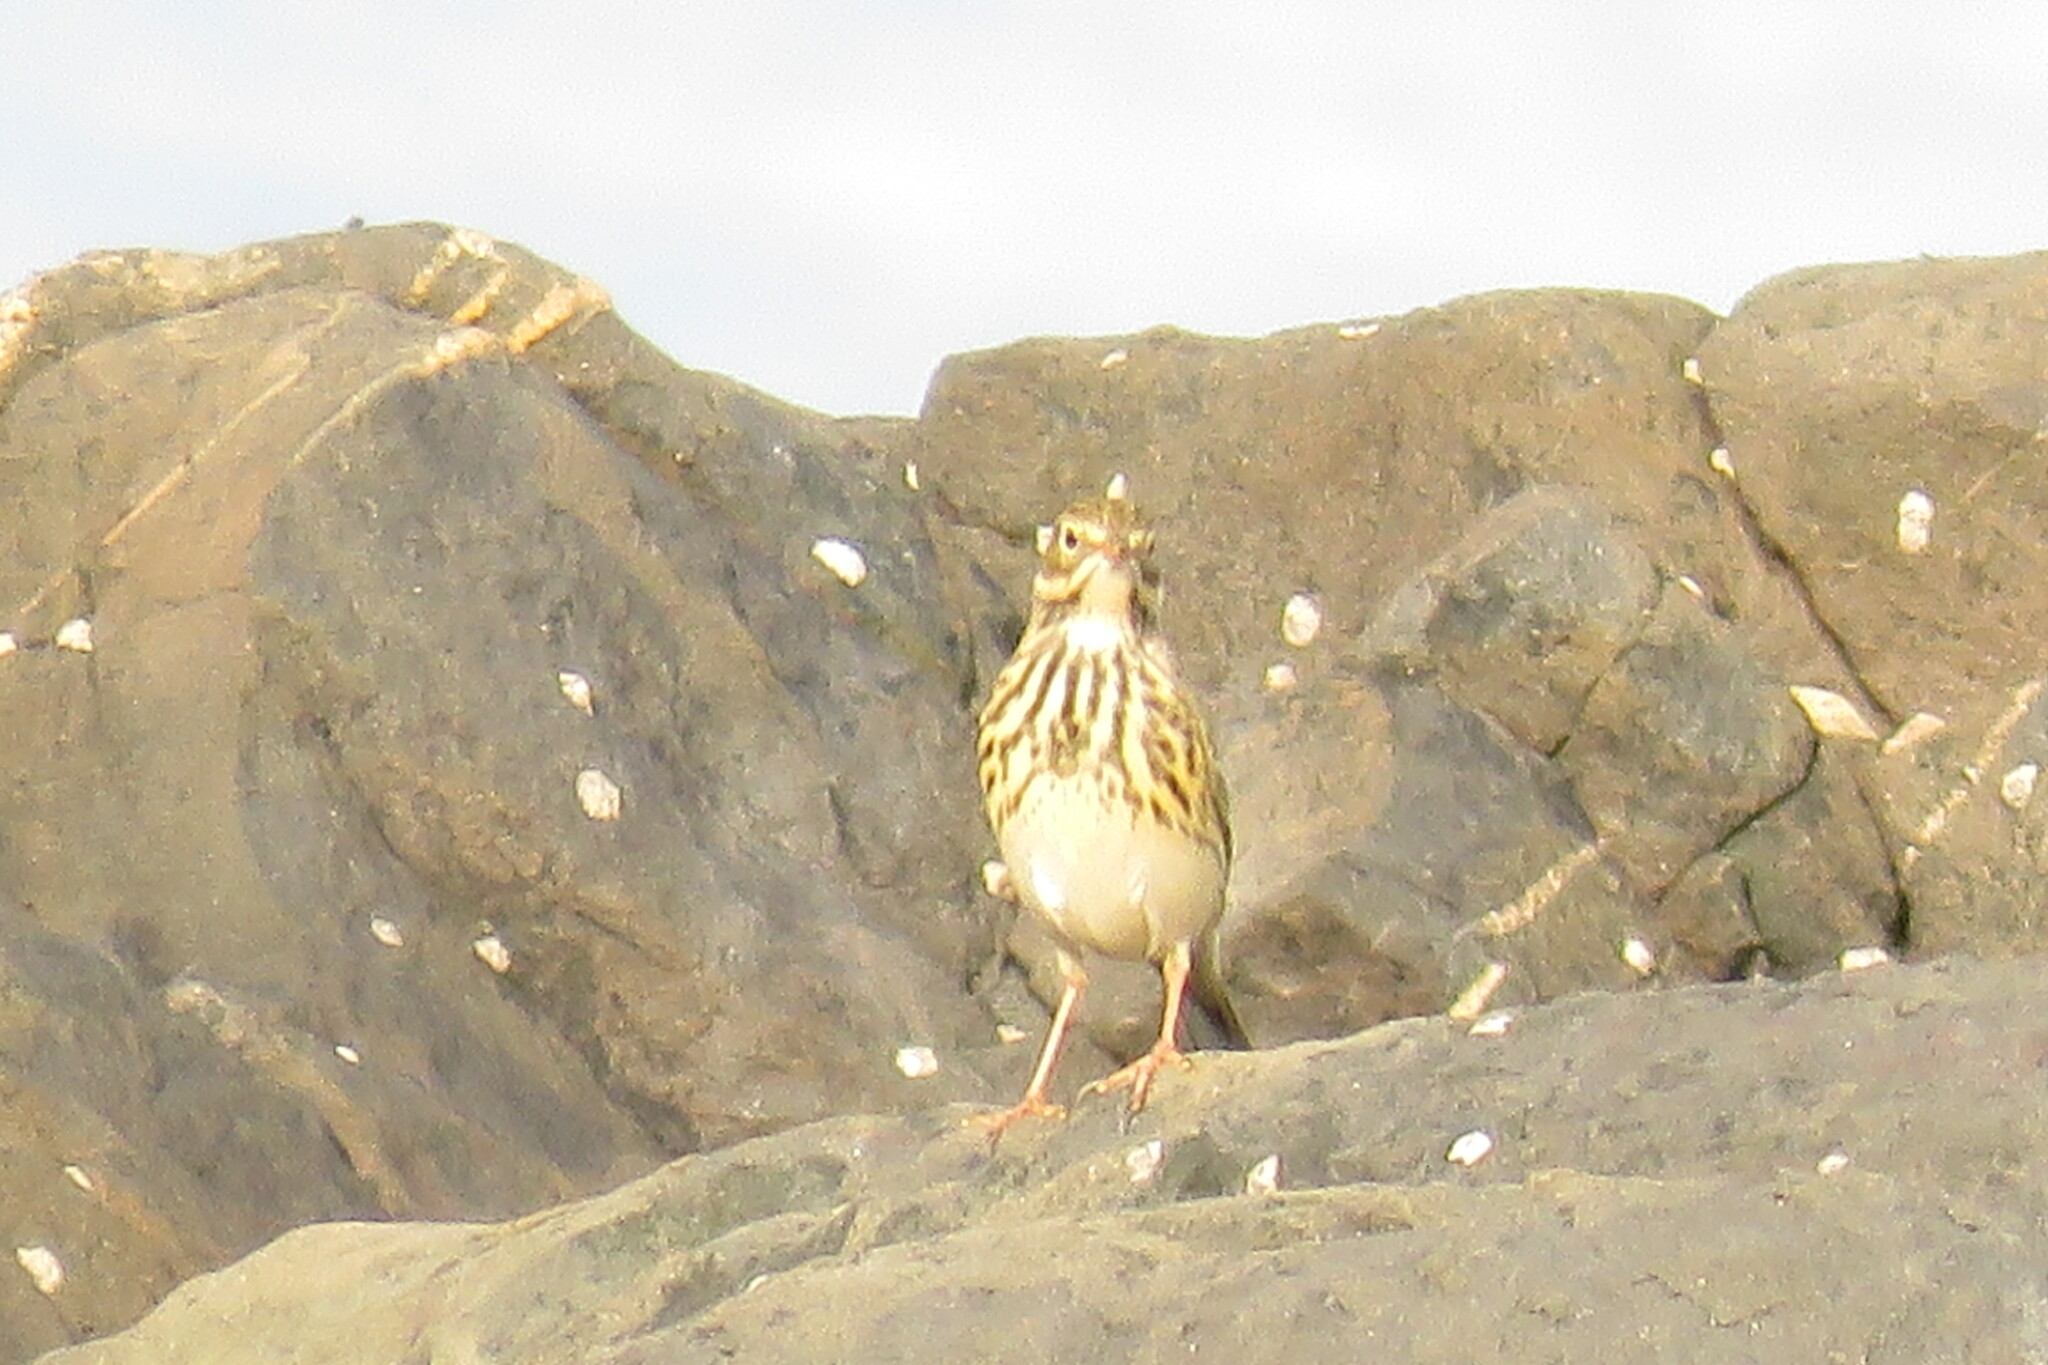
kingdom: Animalia
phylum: Chordata
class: Aves
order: Passeriformes
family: Motacillidae
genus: Anthus
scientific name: Anthus pratensis
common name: Meadow pipit
